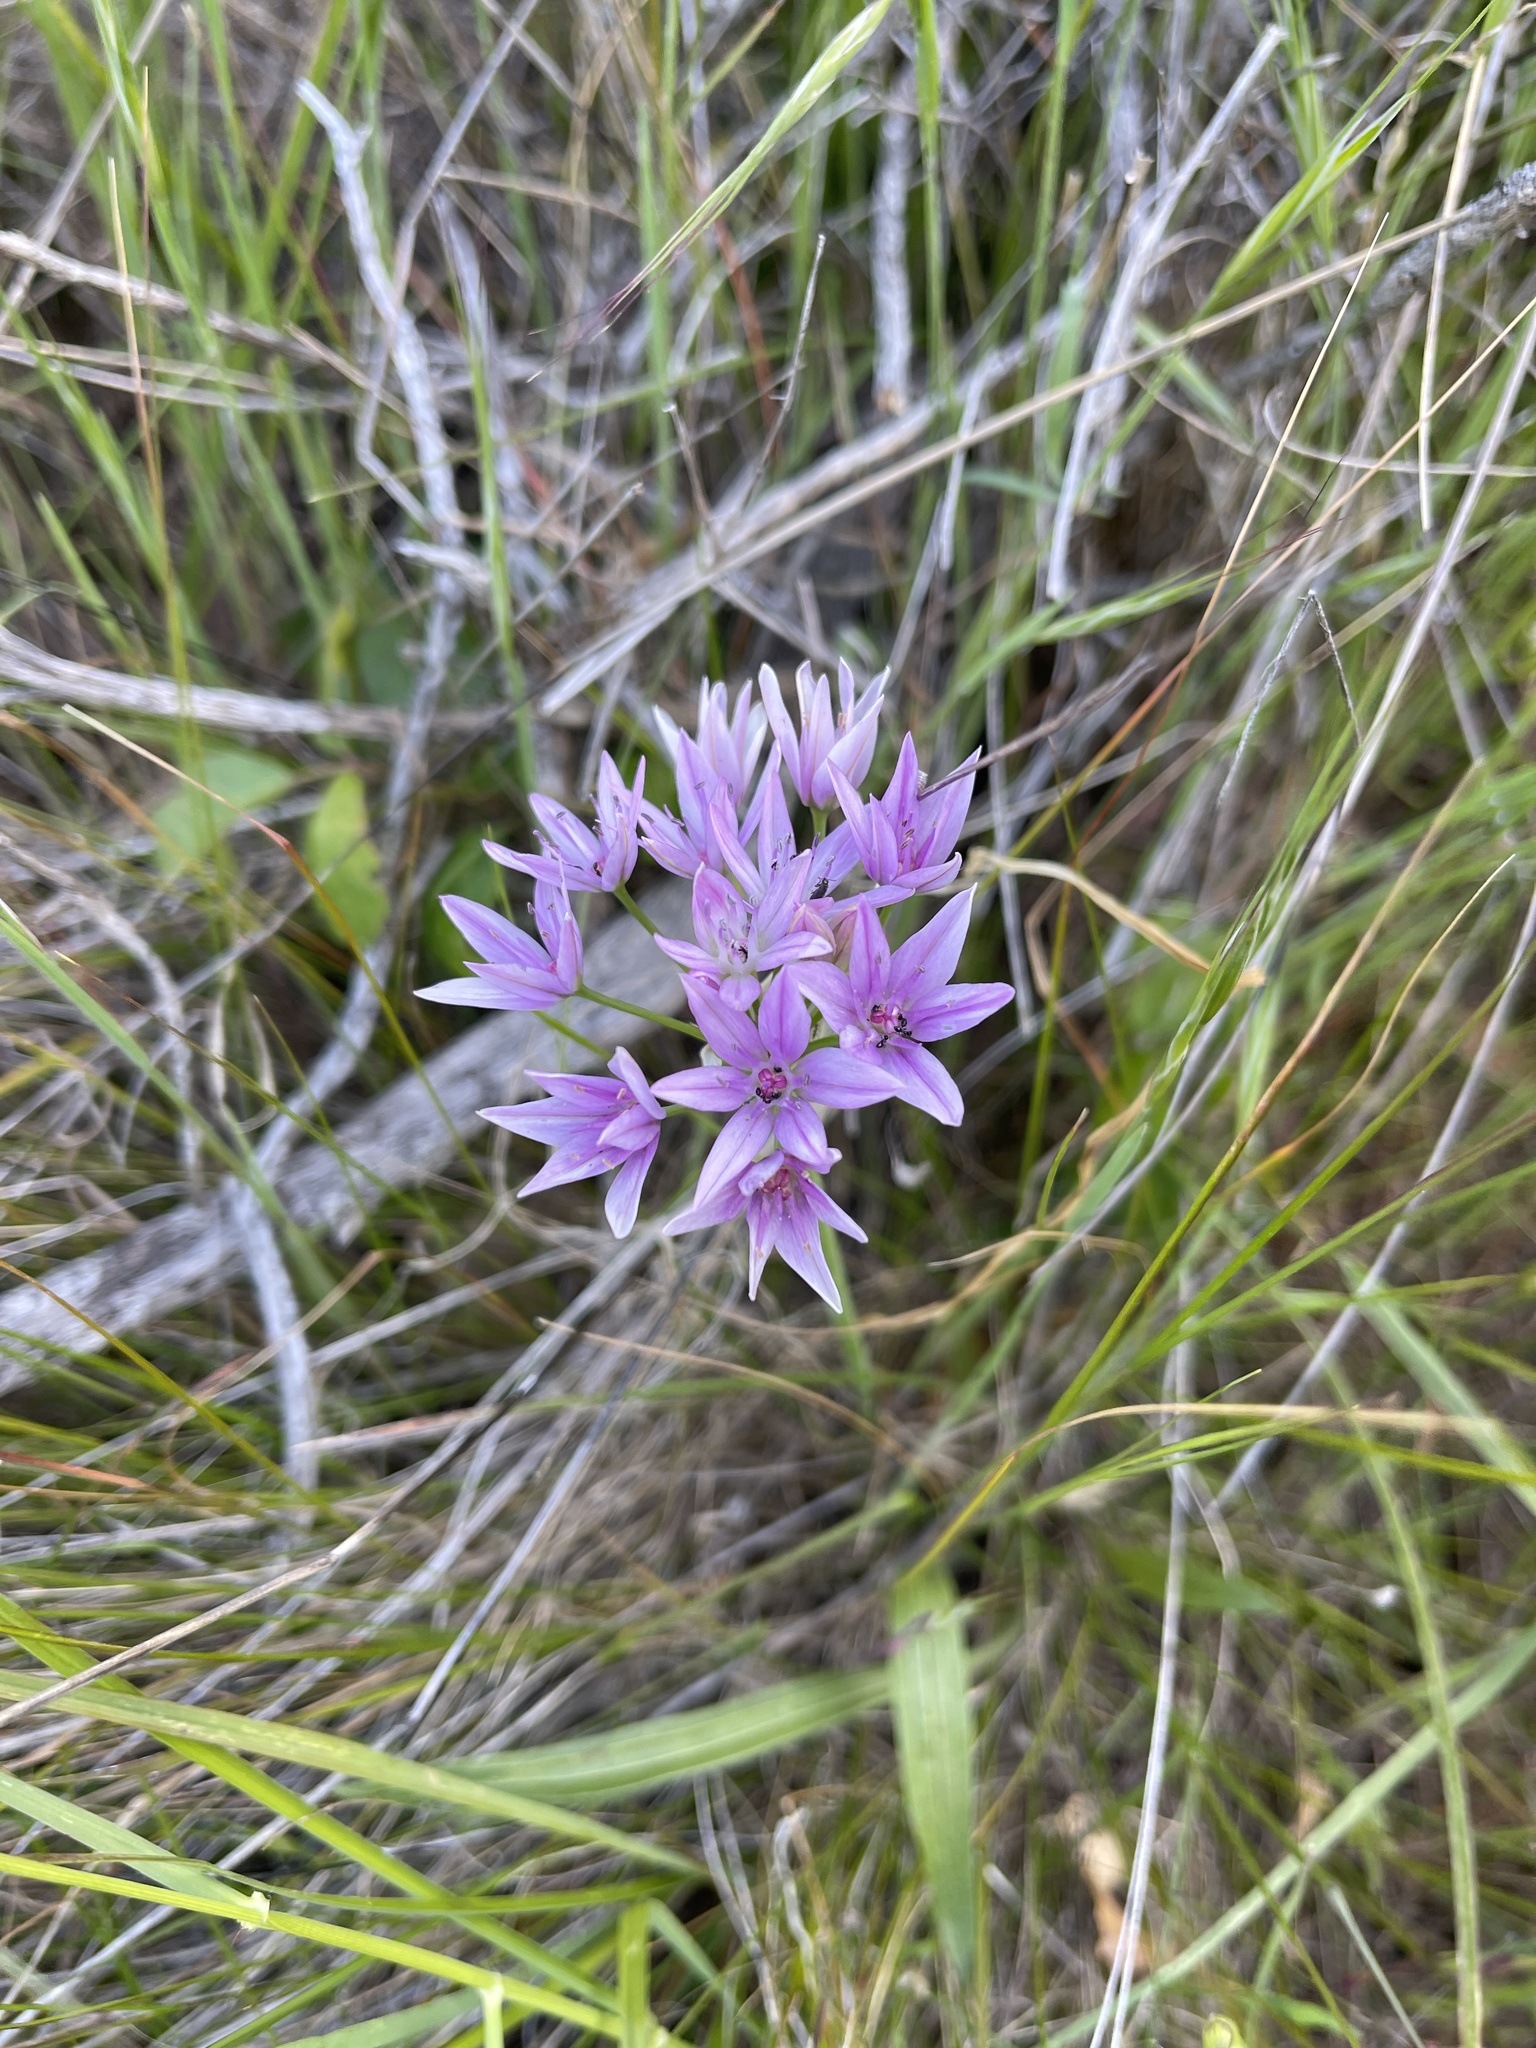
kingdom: Plantae
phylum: Tracheophyta
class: Liliopsida
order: Asparagales
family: Amaryllidaceae
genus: Allium
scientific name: Allium unifolium
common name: American garlic
